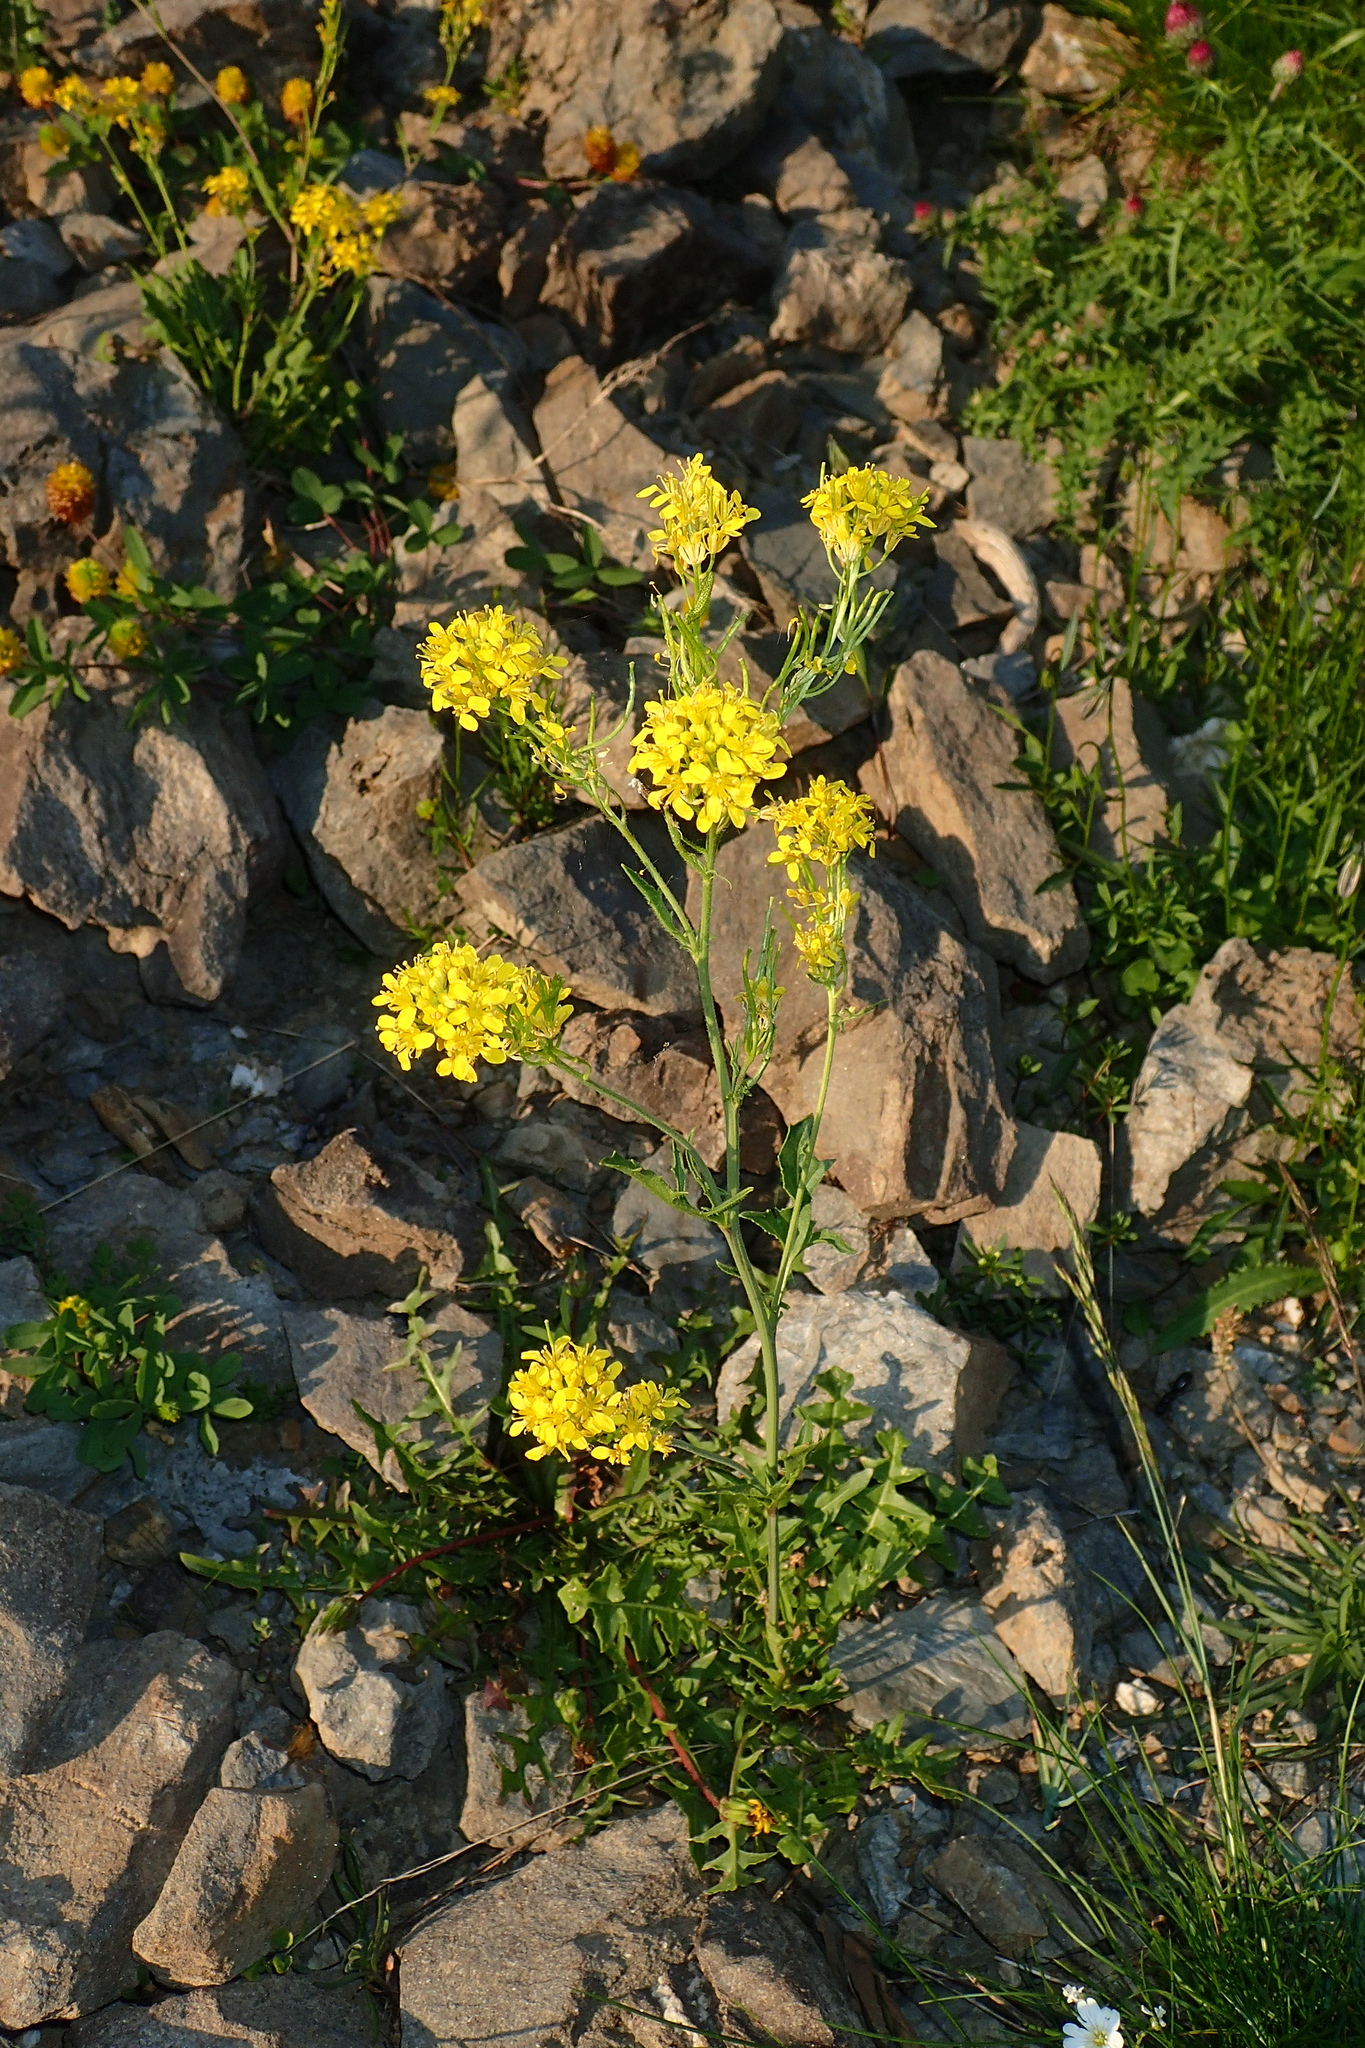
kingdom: Plantae
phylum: Tracheophyta
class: Magnoliopsida
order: Brassicales
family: Brassicaceae
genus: Sisymbrium
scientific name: Sisymbrium austriacum
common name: Jeweled rocket
